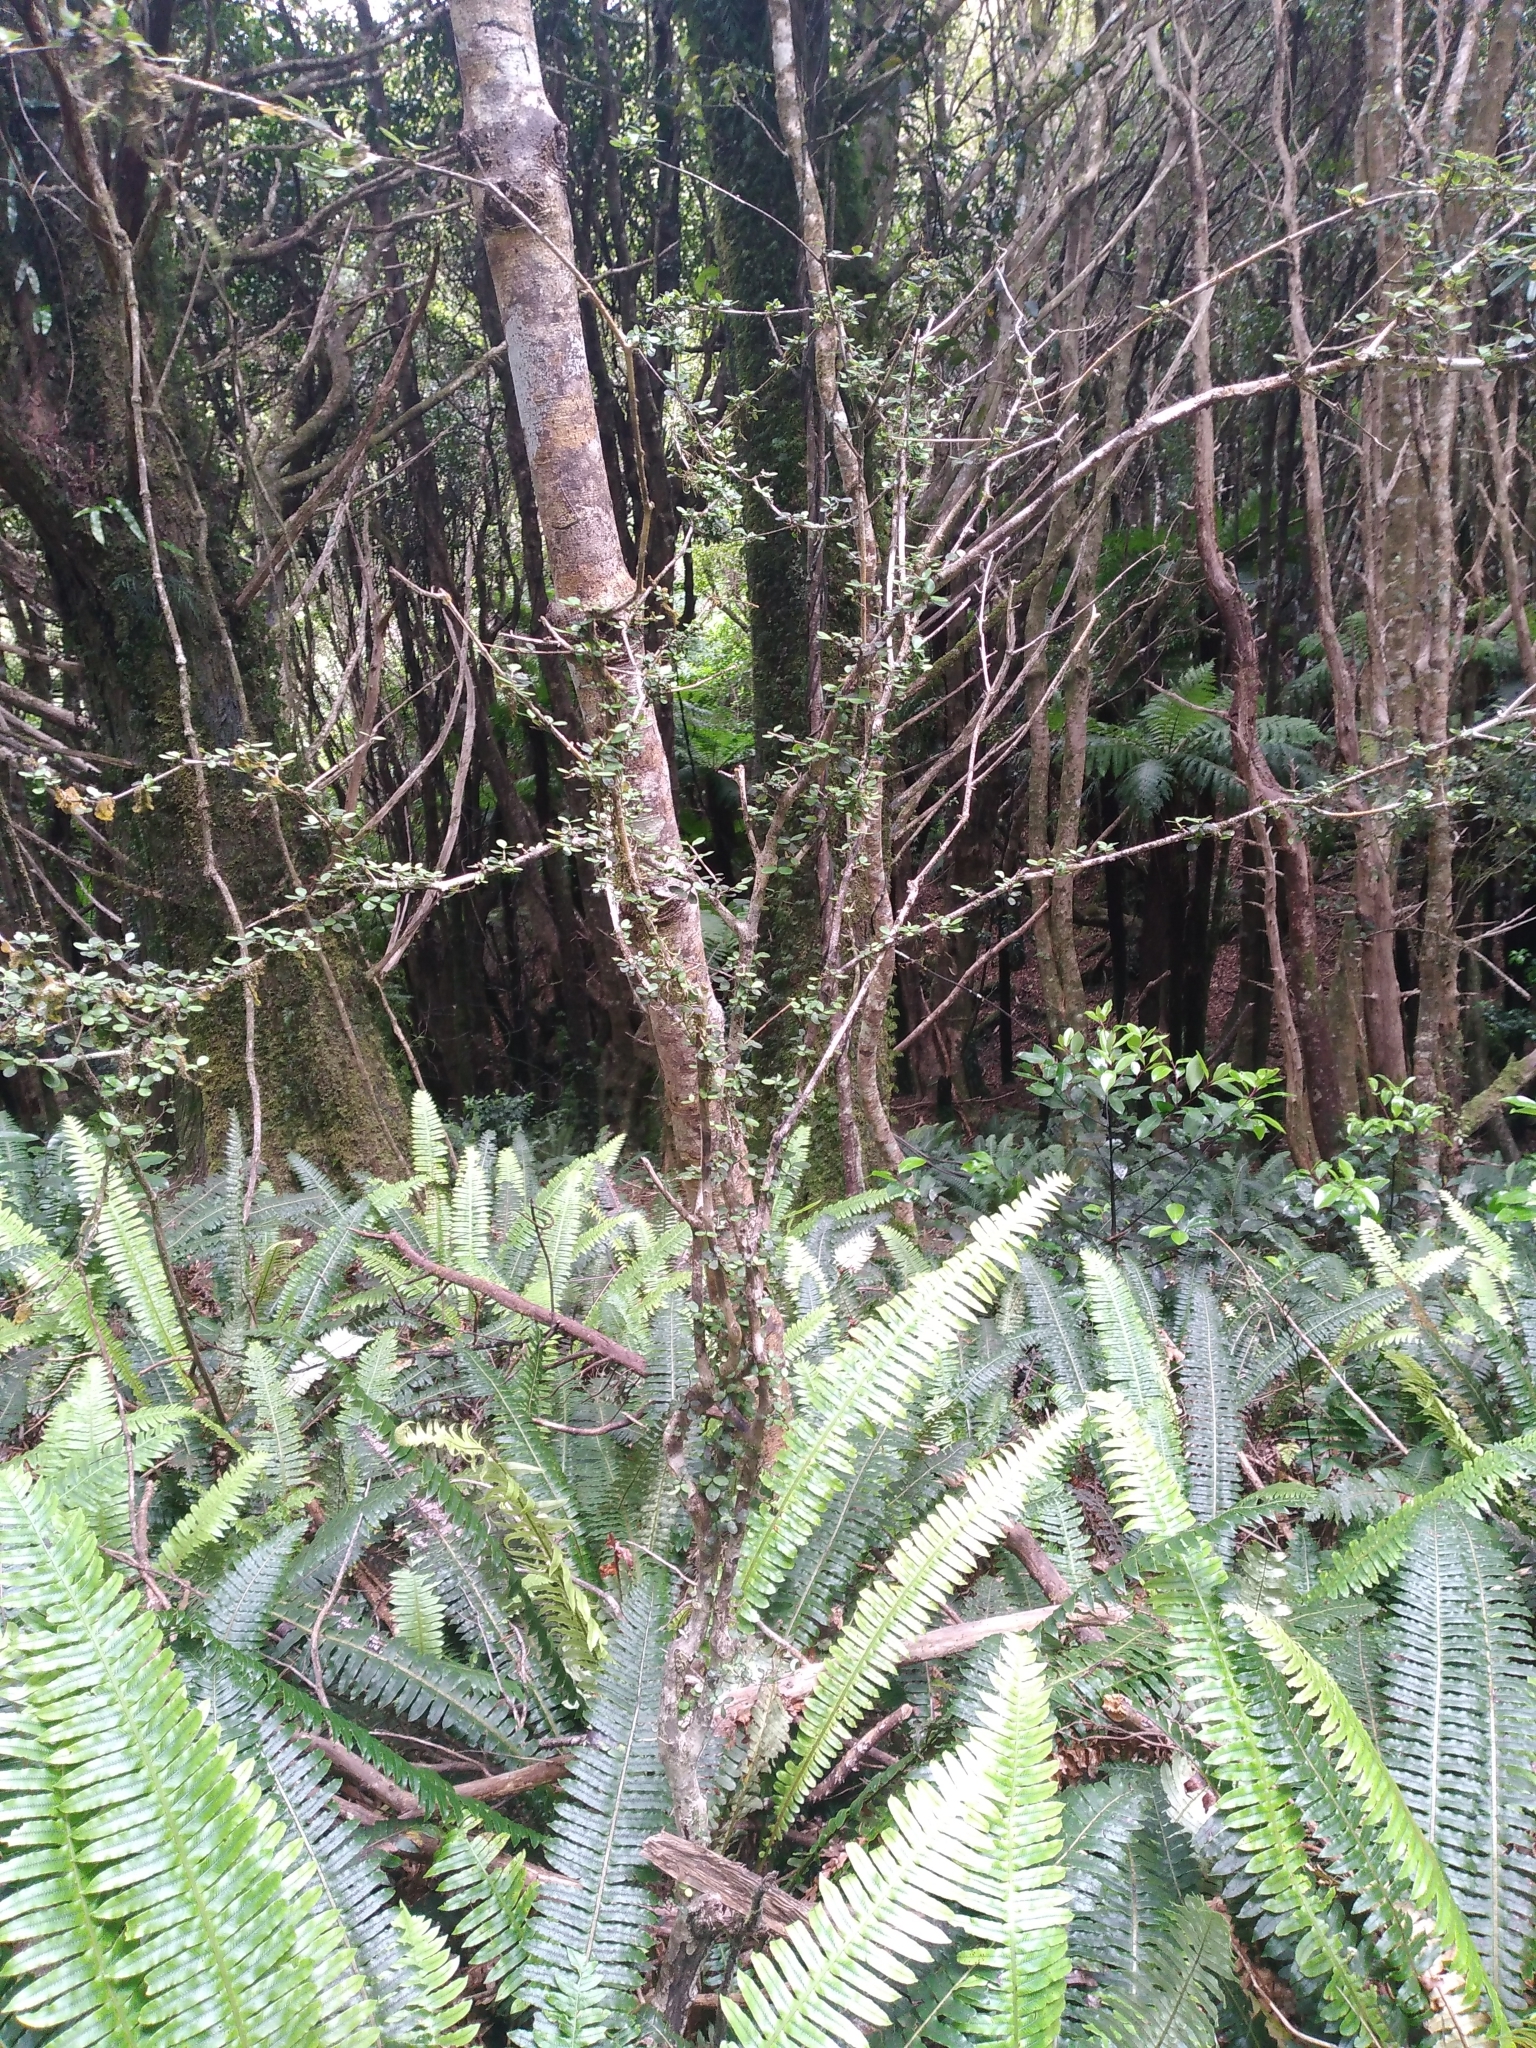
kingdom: Plantae
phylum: Tracheophyta
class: Magnoliopsida
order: Myrtales
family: Myrtaceae
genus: Neomyrtus
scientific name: Neomyrtus pedunculata
